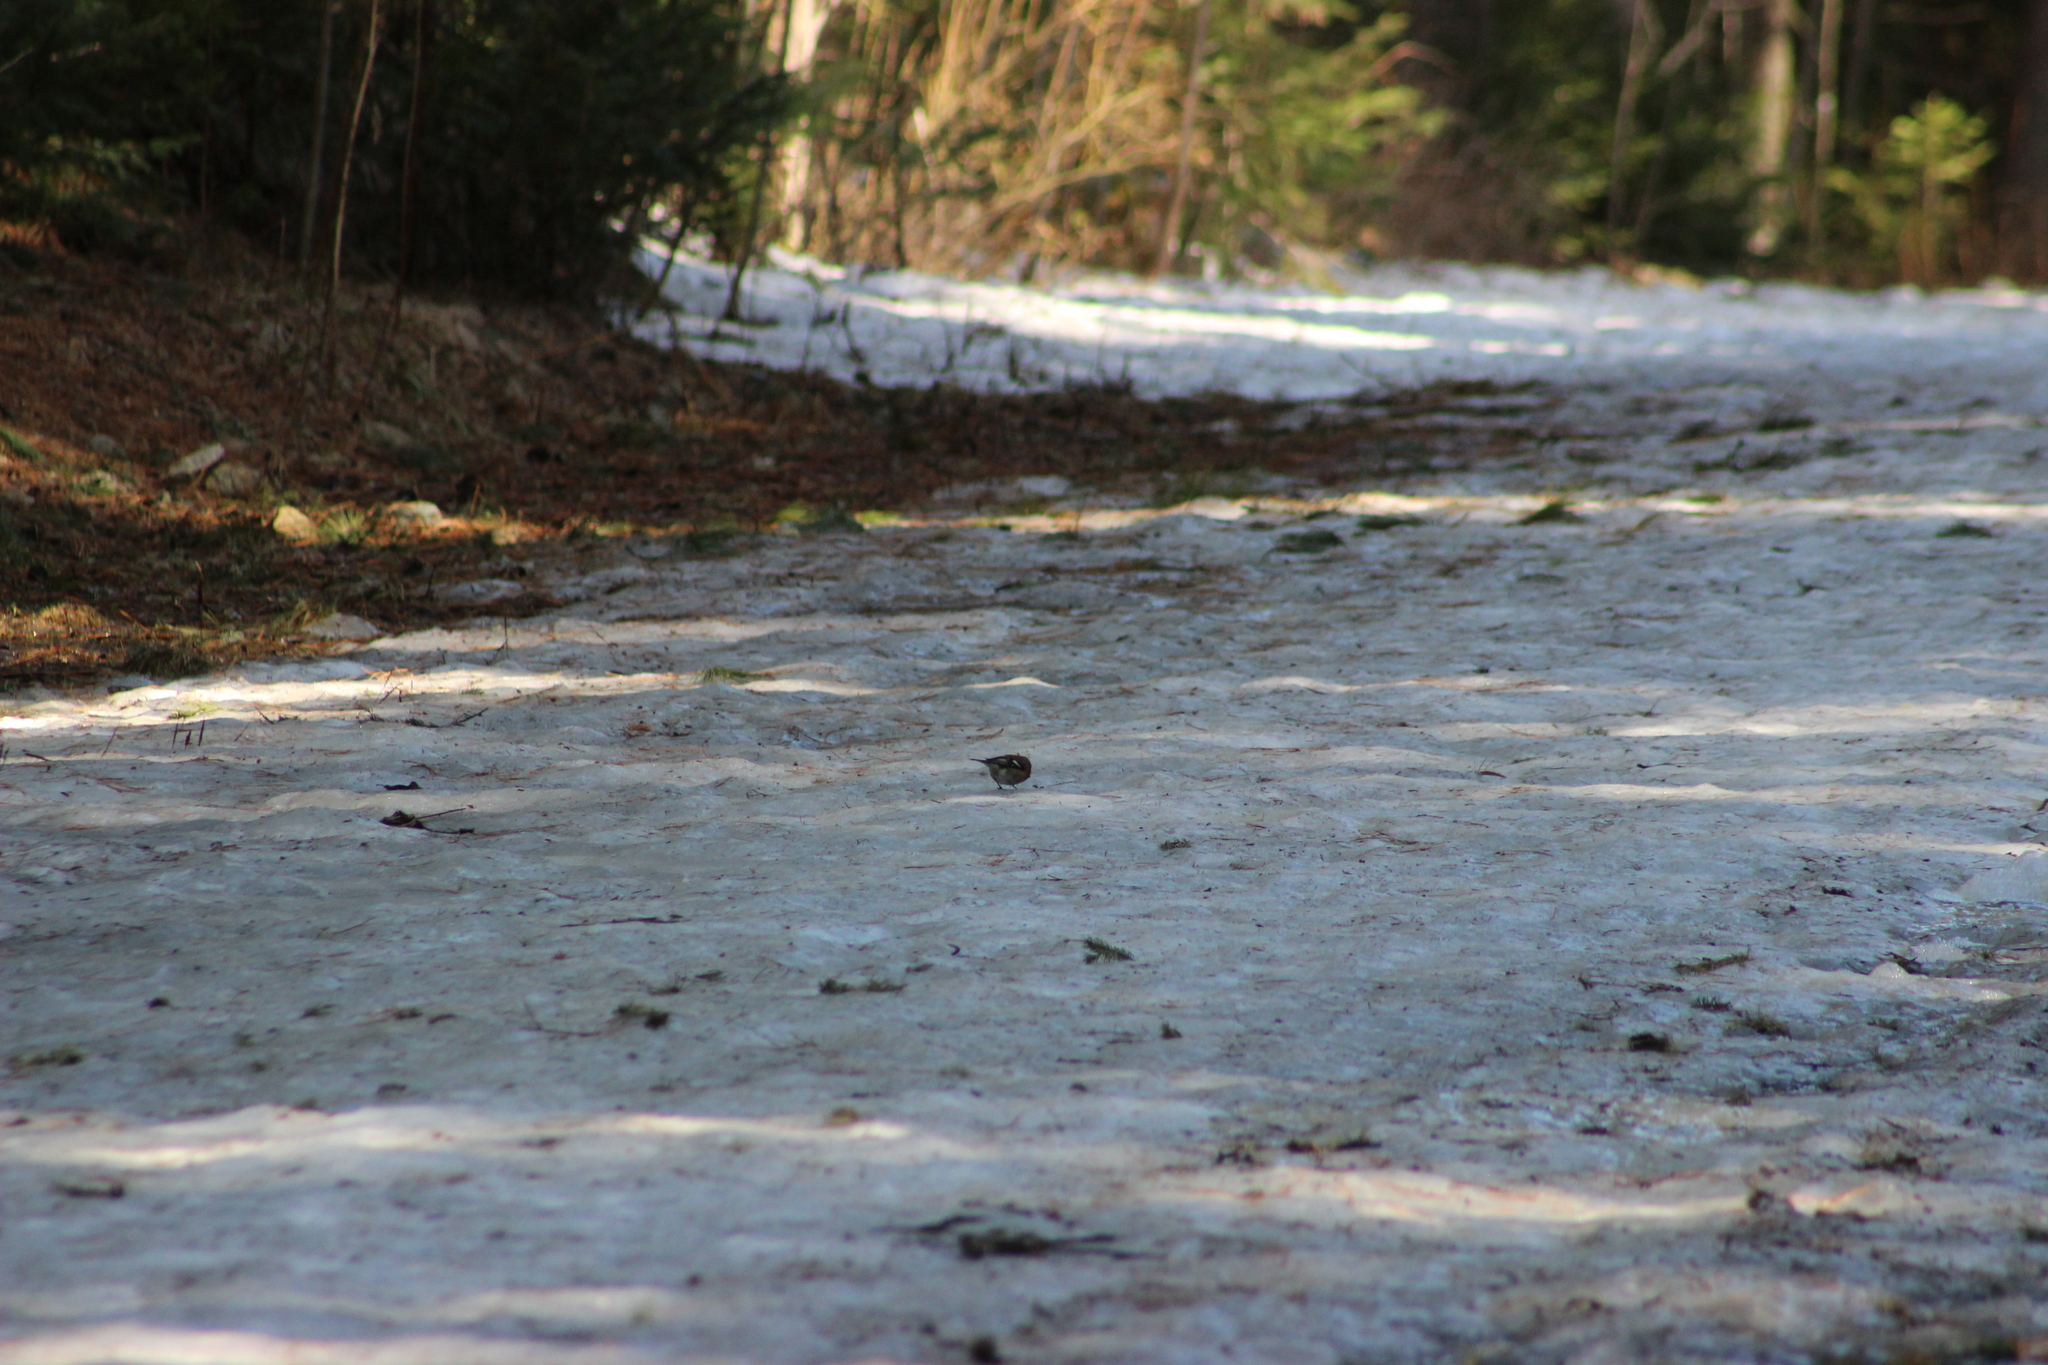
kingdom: Animalia
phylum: Chordata
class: Aves
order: Passeriformes
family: Fringillidae
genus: Fringilla
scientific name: Fringilla coelebs
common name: Common chaffinch
